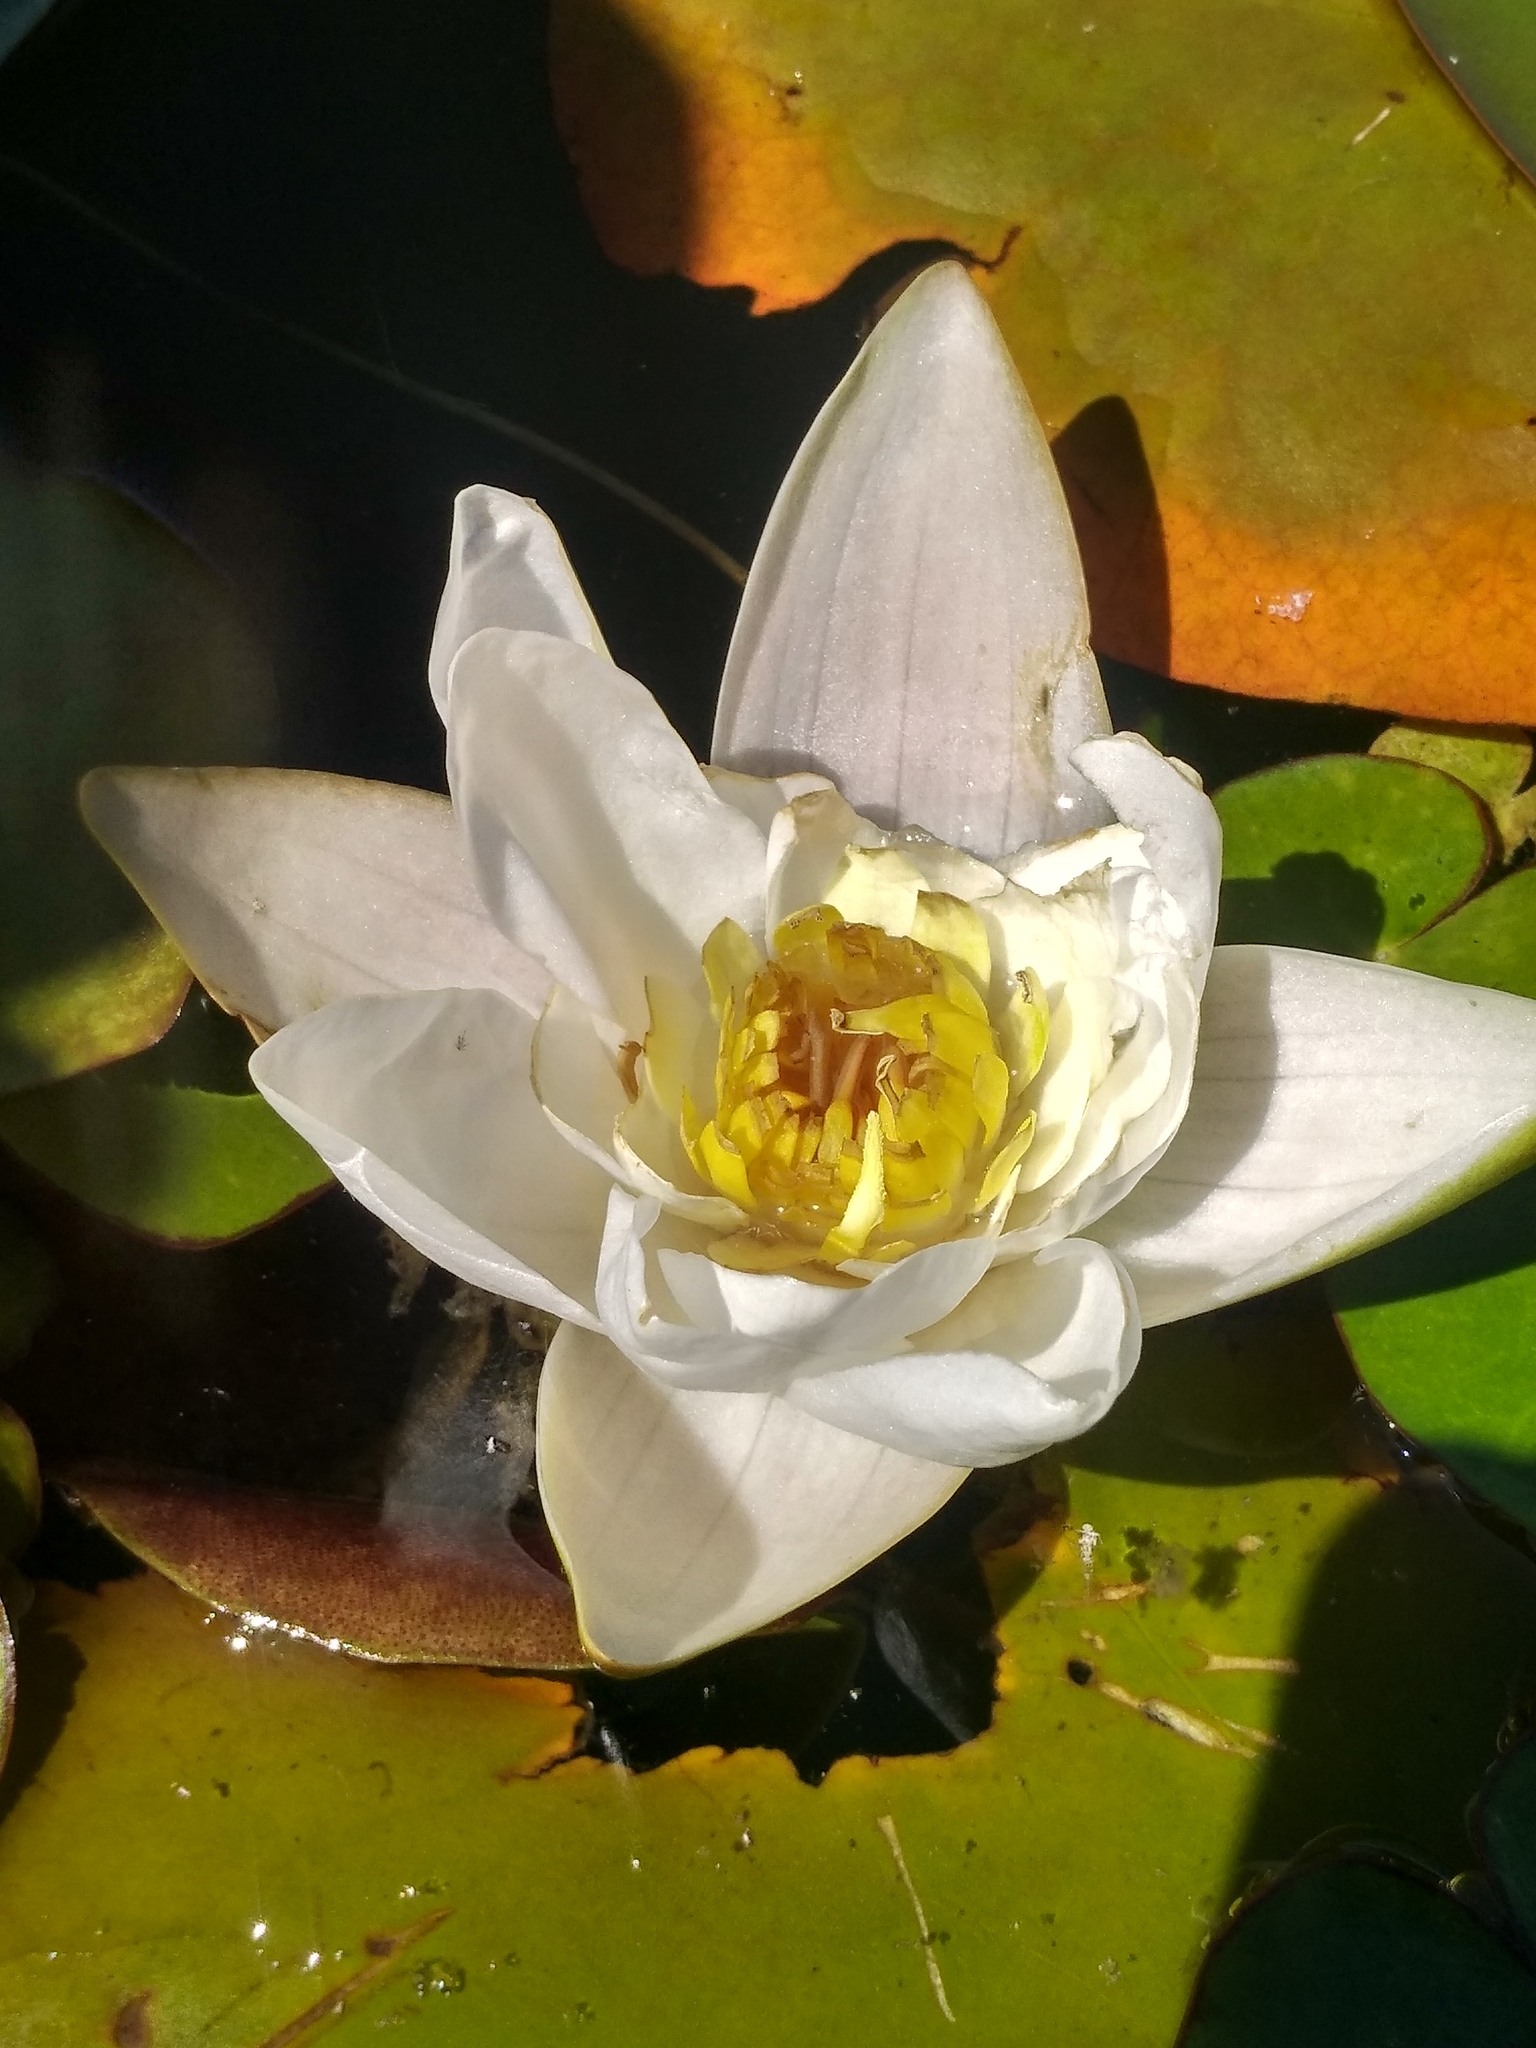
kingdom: Plantae
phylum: Tracheophyta
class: Magnoliopsida
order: Nymphaeales
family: Nymphaeaceae
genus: Nymphaea
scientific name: Nymphaea candida
